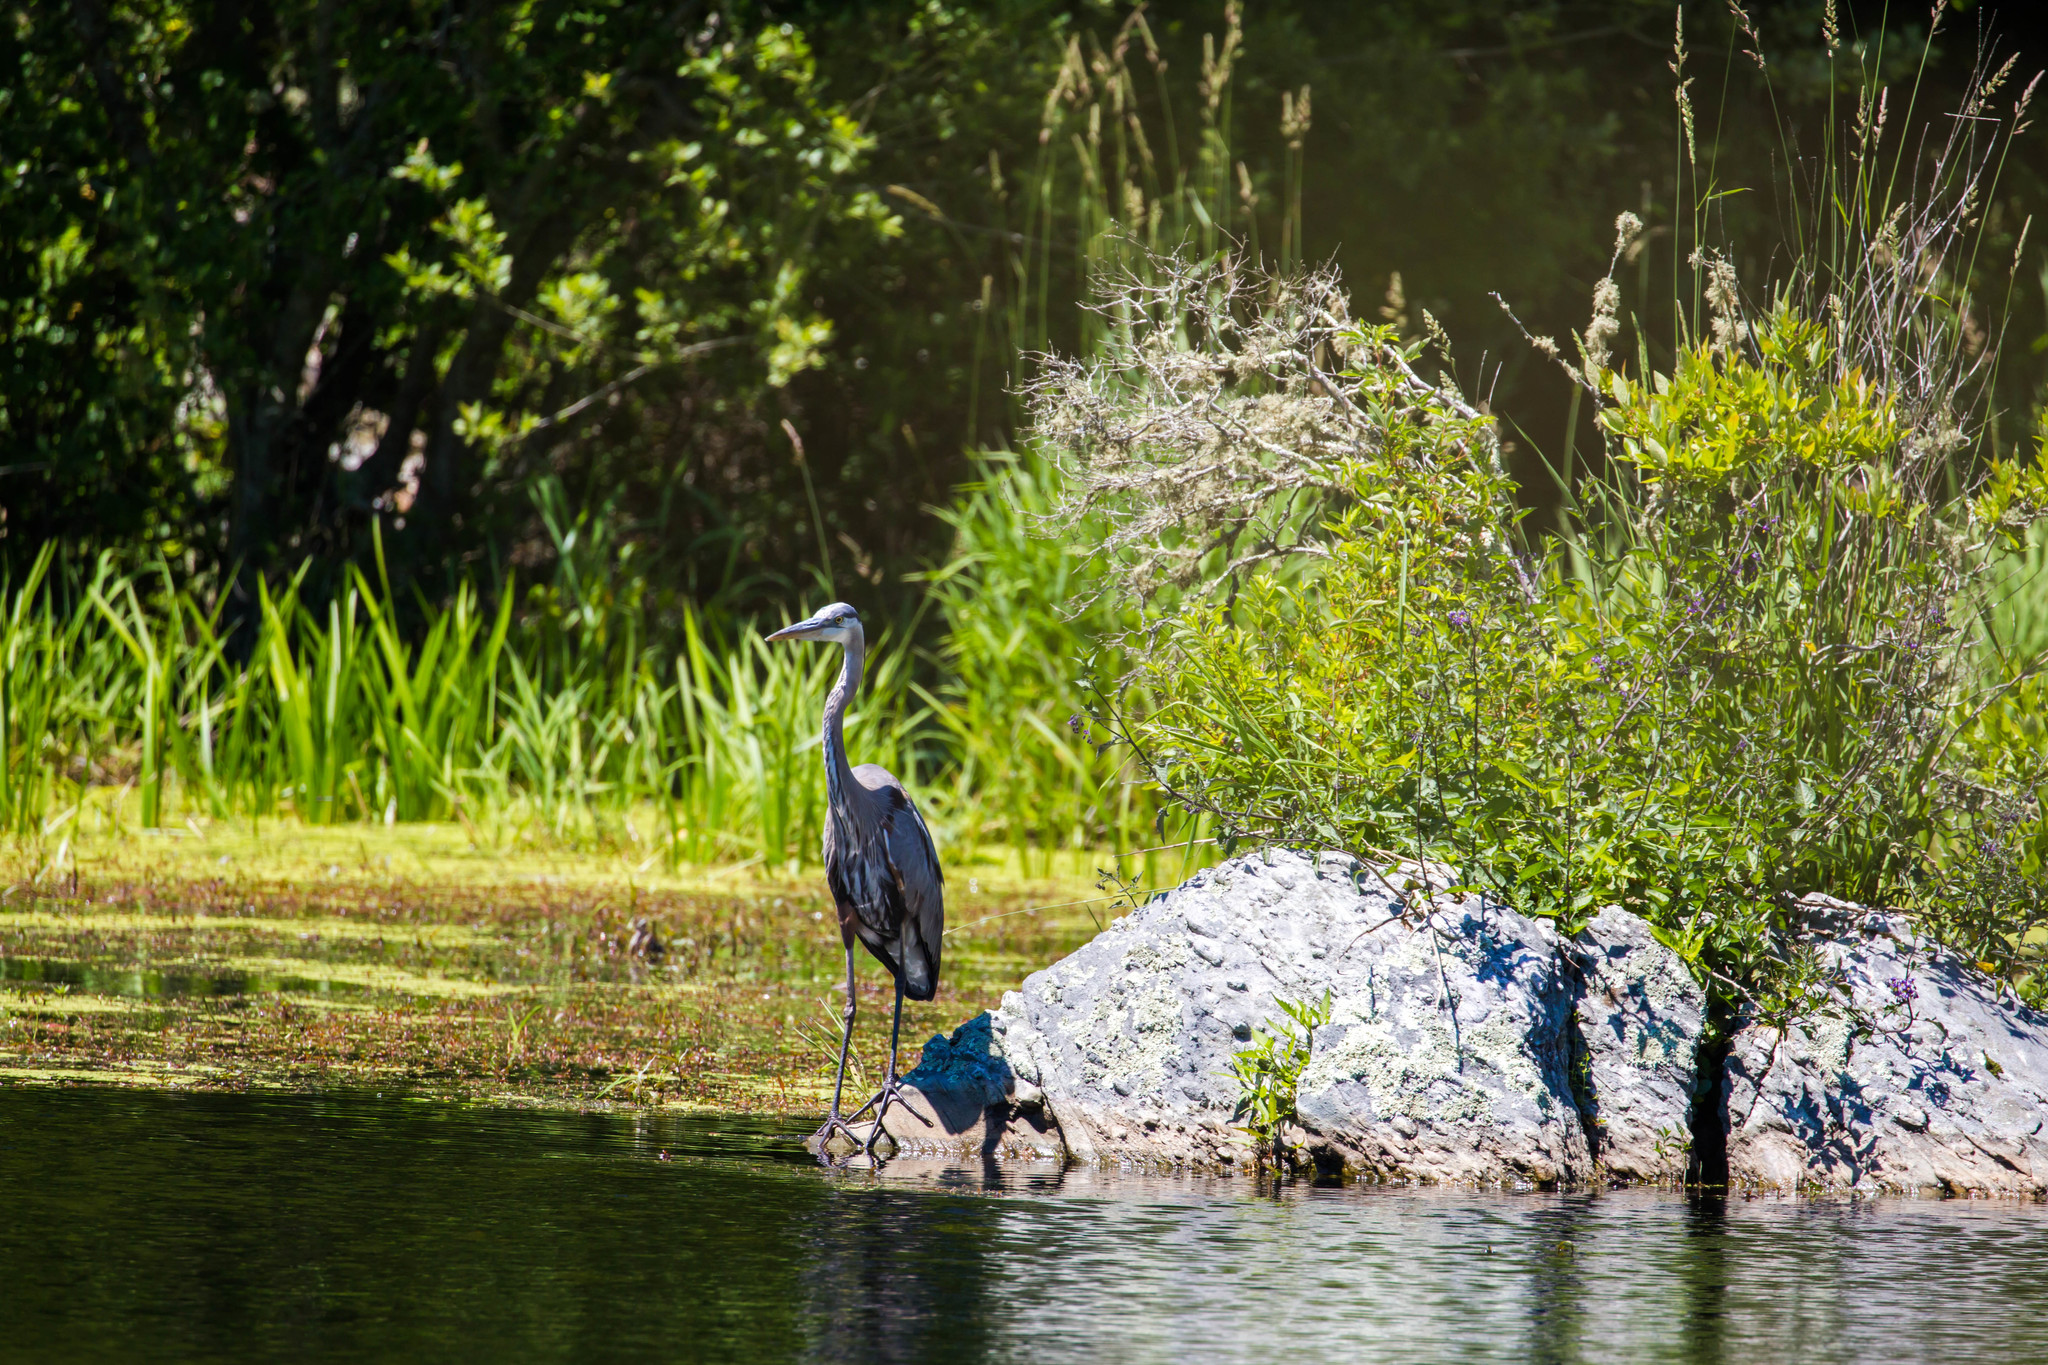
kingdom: Animalia
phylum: Chordata
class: Aves
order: Pelecaniformes
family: Ardeidae
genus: Ardea
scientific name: Ardea herodias
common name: Great blue heron
